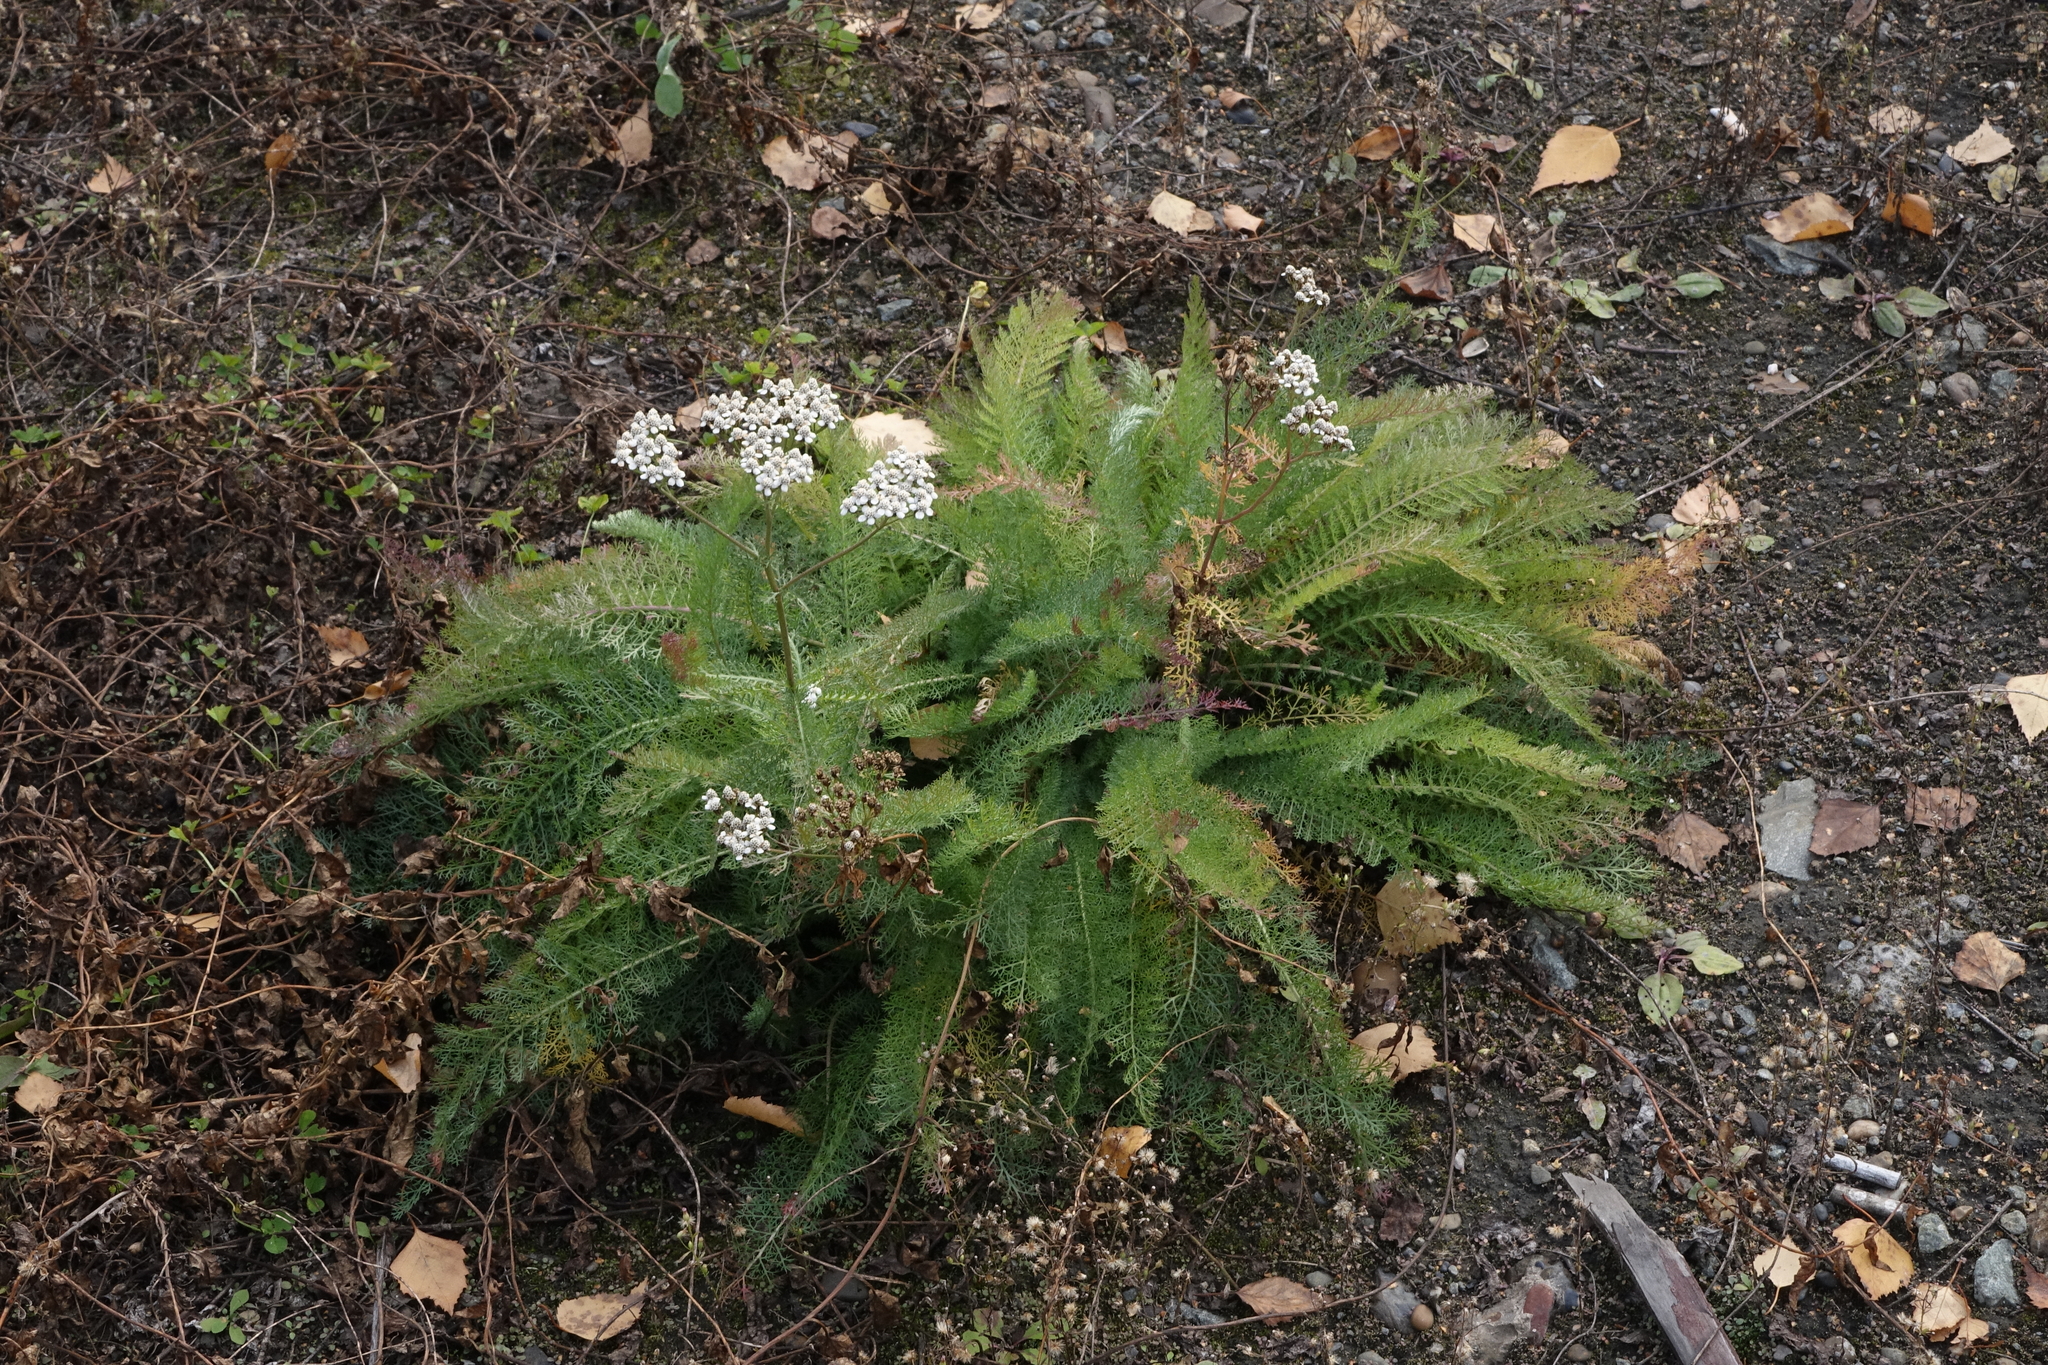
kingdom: Plantae
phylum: Tracheophyta
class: Magnoliopsida
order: Asterales
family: Asteraceae
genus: Achillea
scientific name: Achillea millefolium
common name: Yarrow
